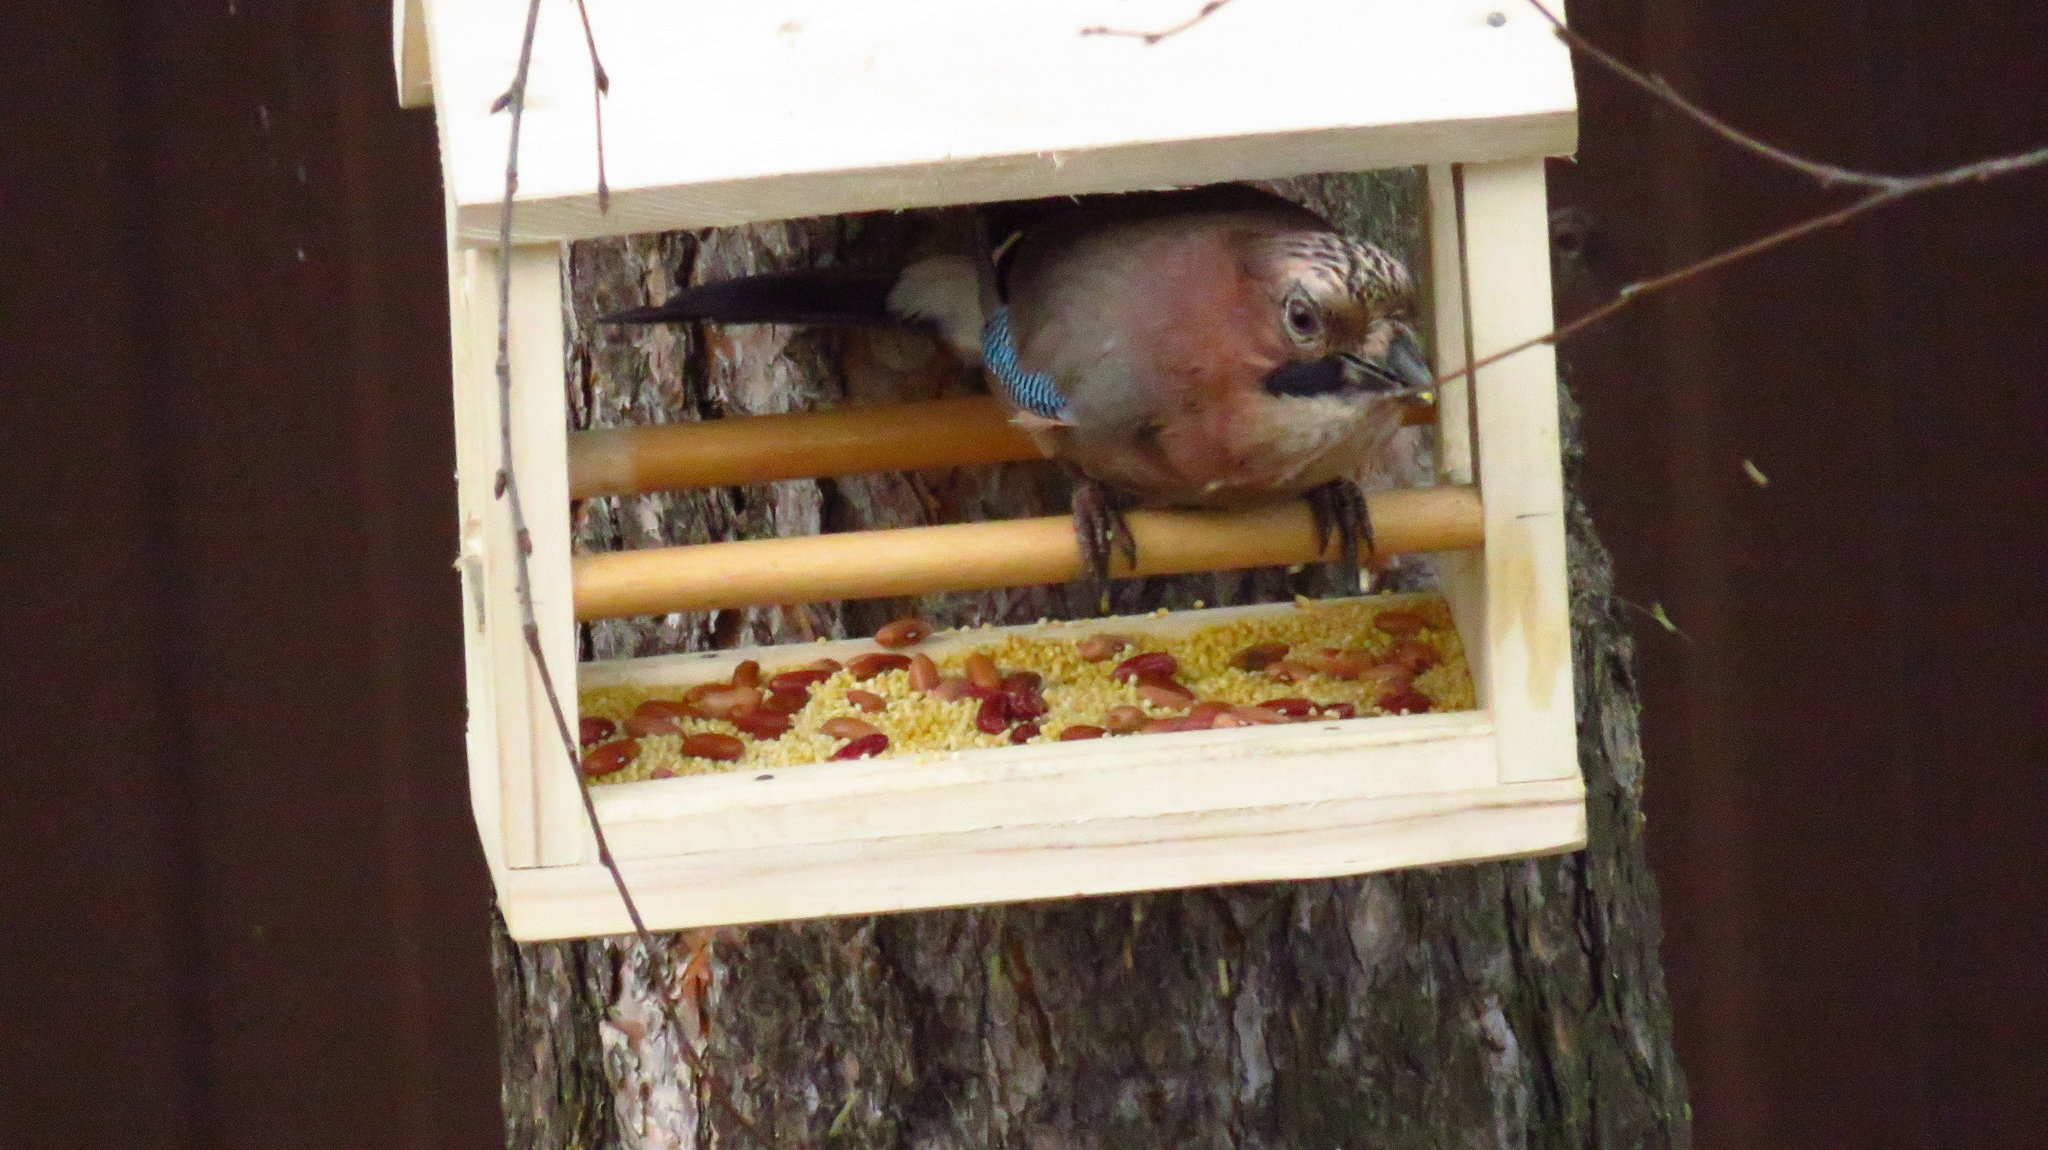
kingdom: Animalia
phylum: Chordata
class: Aves
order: Passeriformes
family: Corvidae
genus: Garrulus
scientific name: Garrulus glandarius
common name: Eurasian jay
